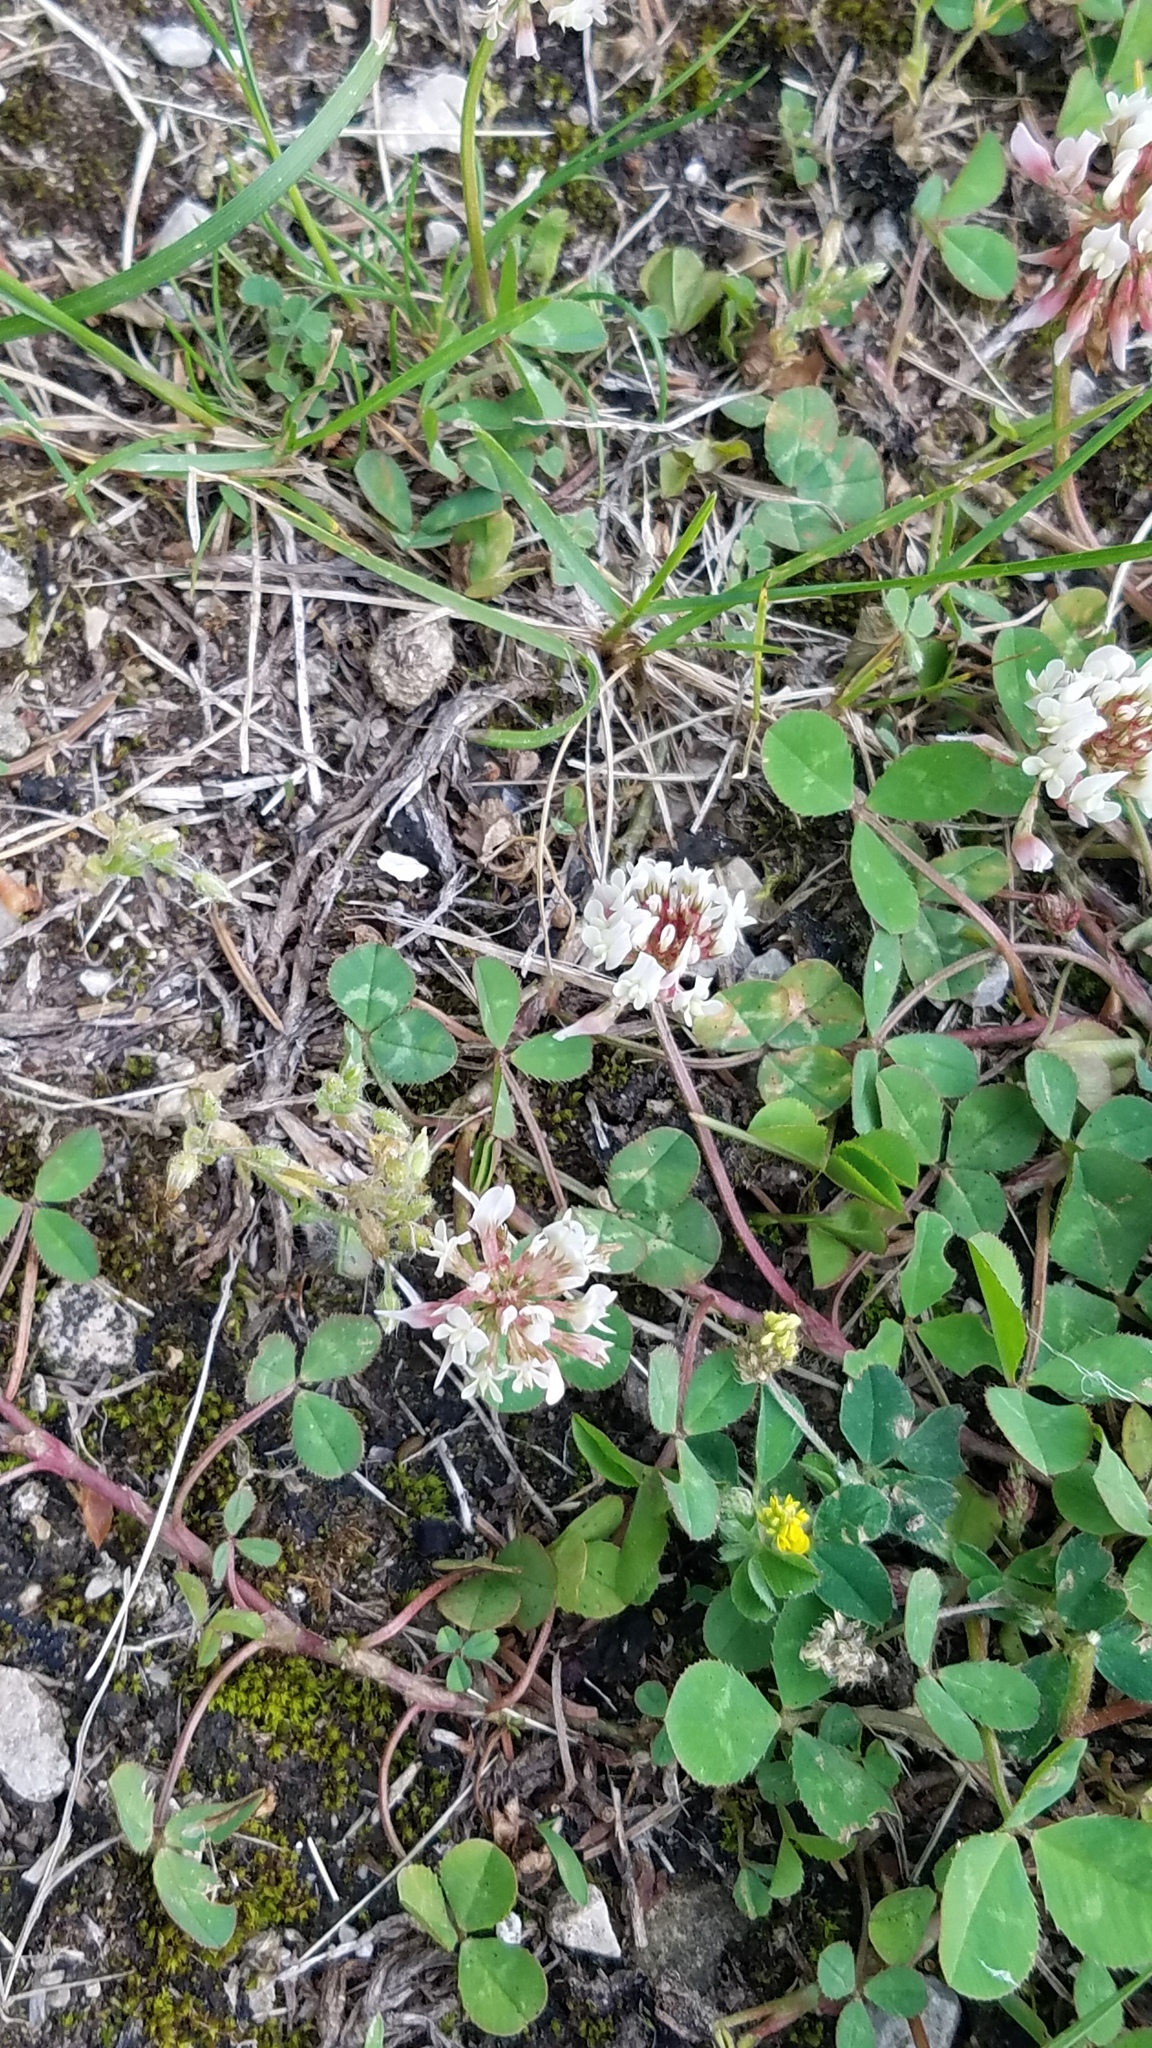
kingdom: Plantae
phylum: Tracheophyta
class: Magnoliopsida
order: Fabales
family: Fabaceae
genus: Trifolium
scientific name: Trifolium repens
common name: White clover
